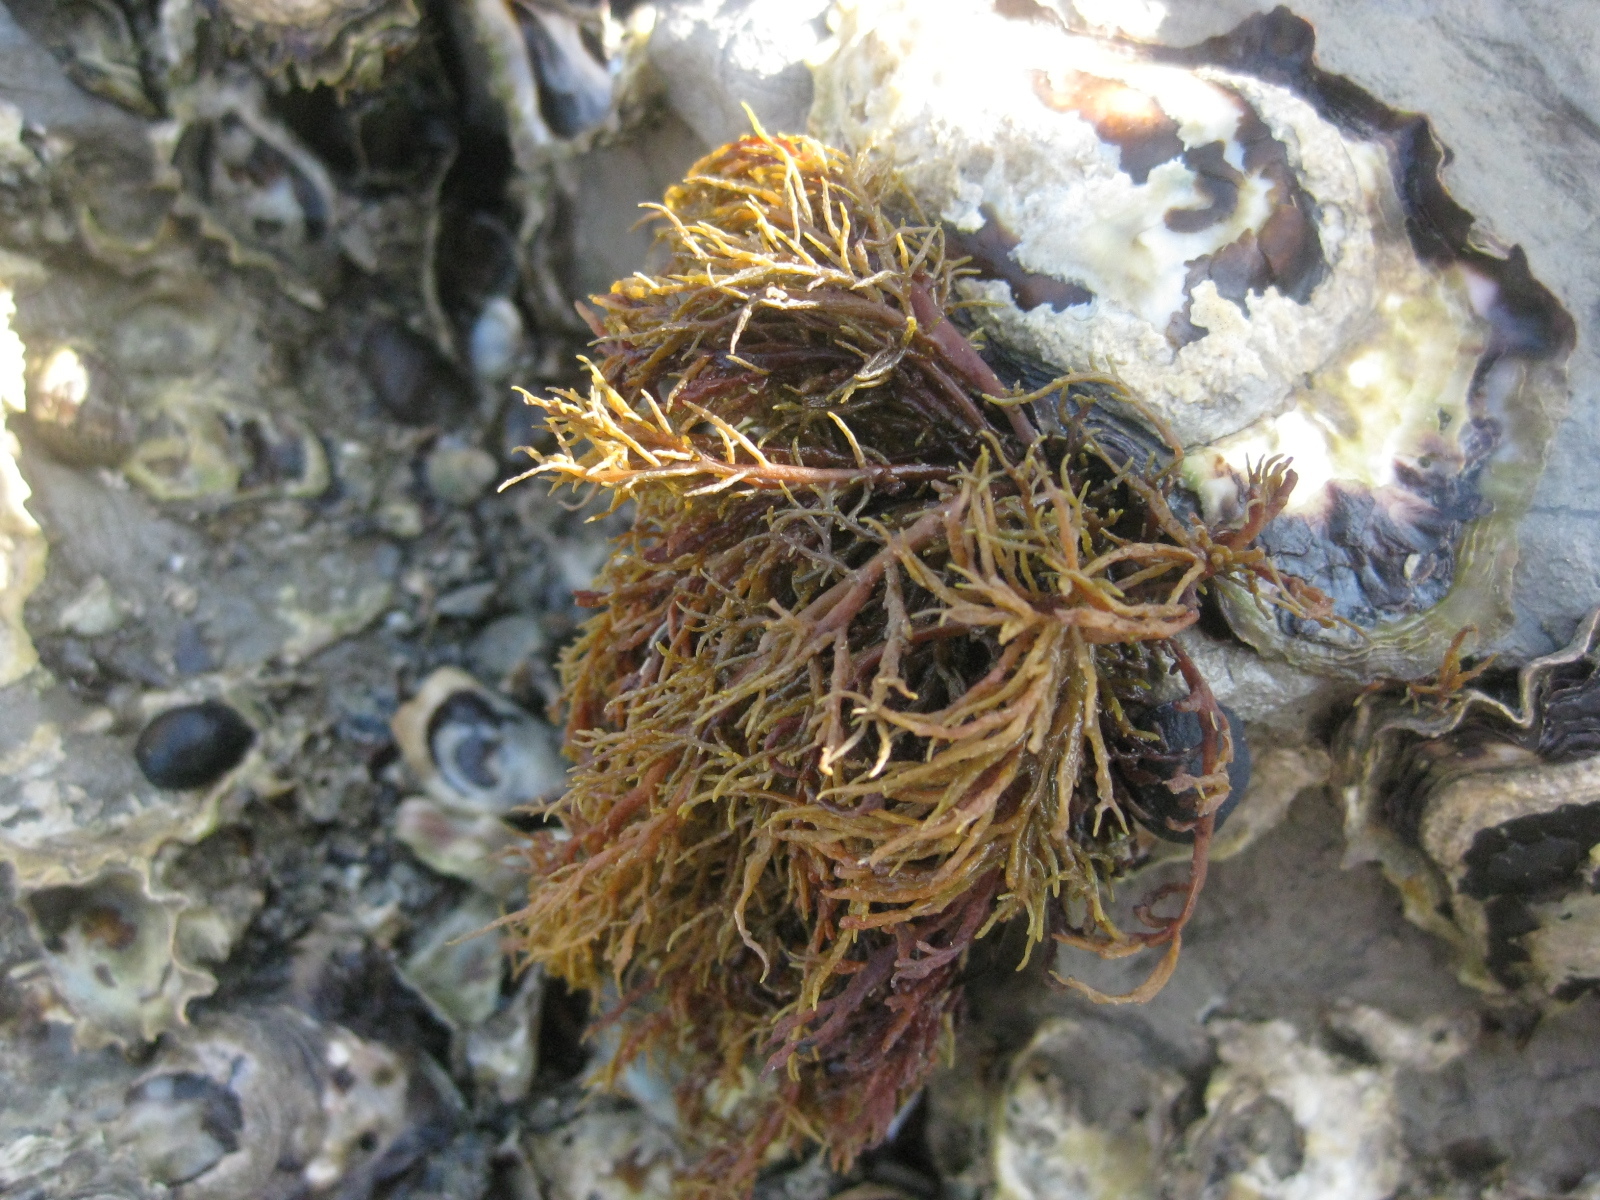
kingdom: Chromista
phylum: Ochrophyta
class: Phaeophyceae
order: Scytothamnales
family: Scytothamnaceae
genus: Scytothamnus
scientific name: Scytothamnus australis
